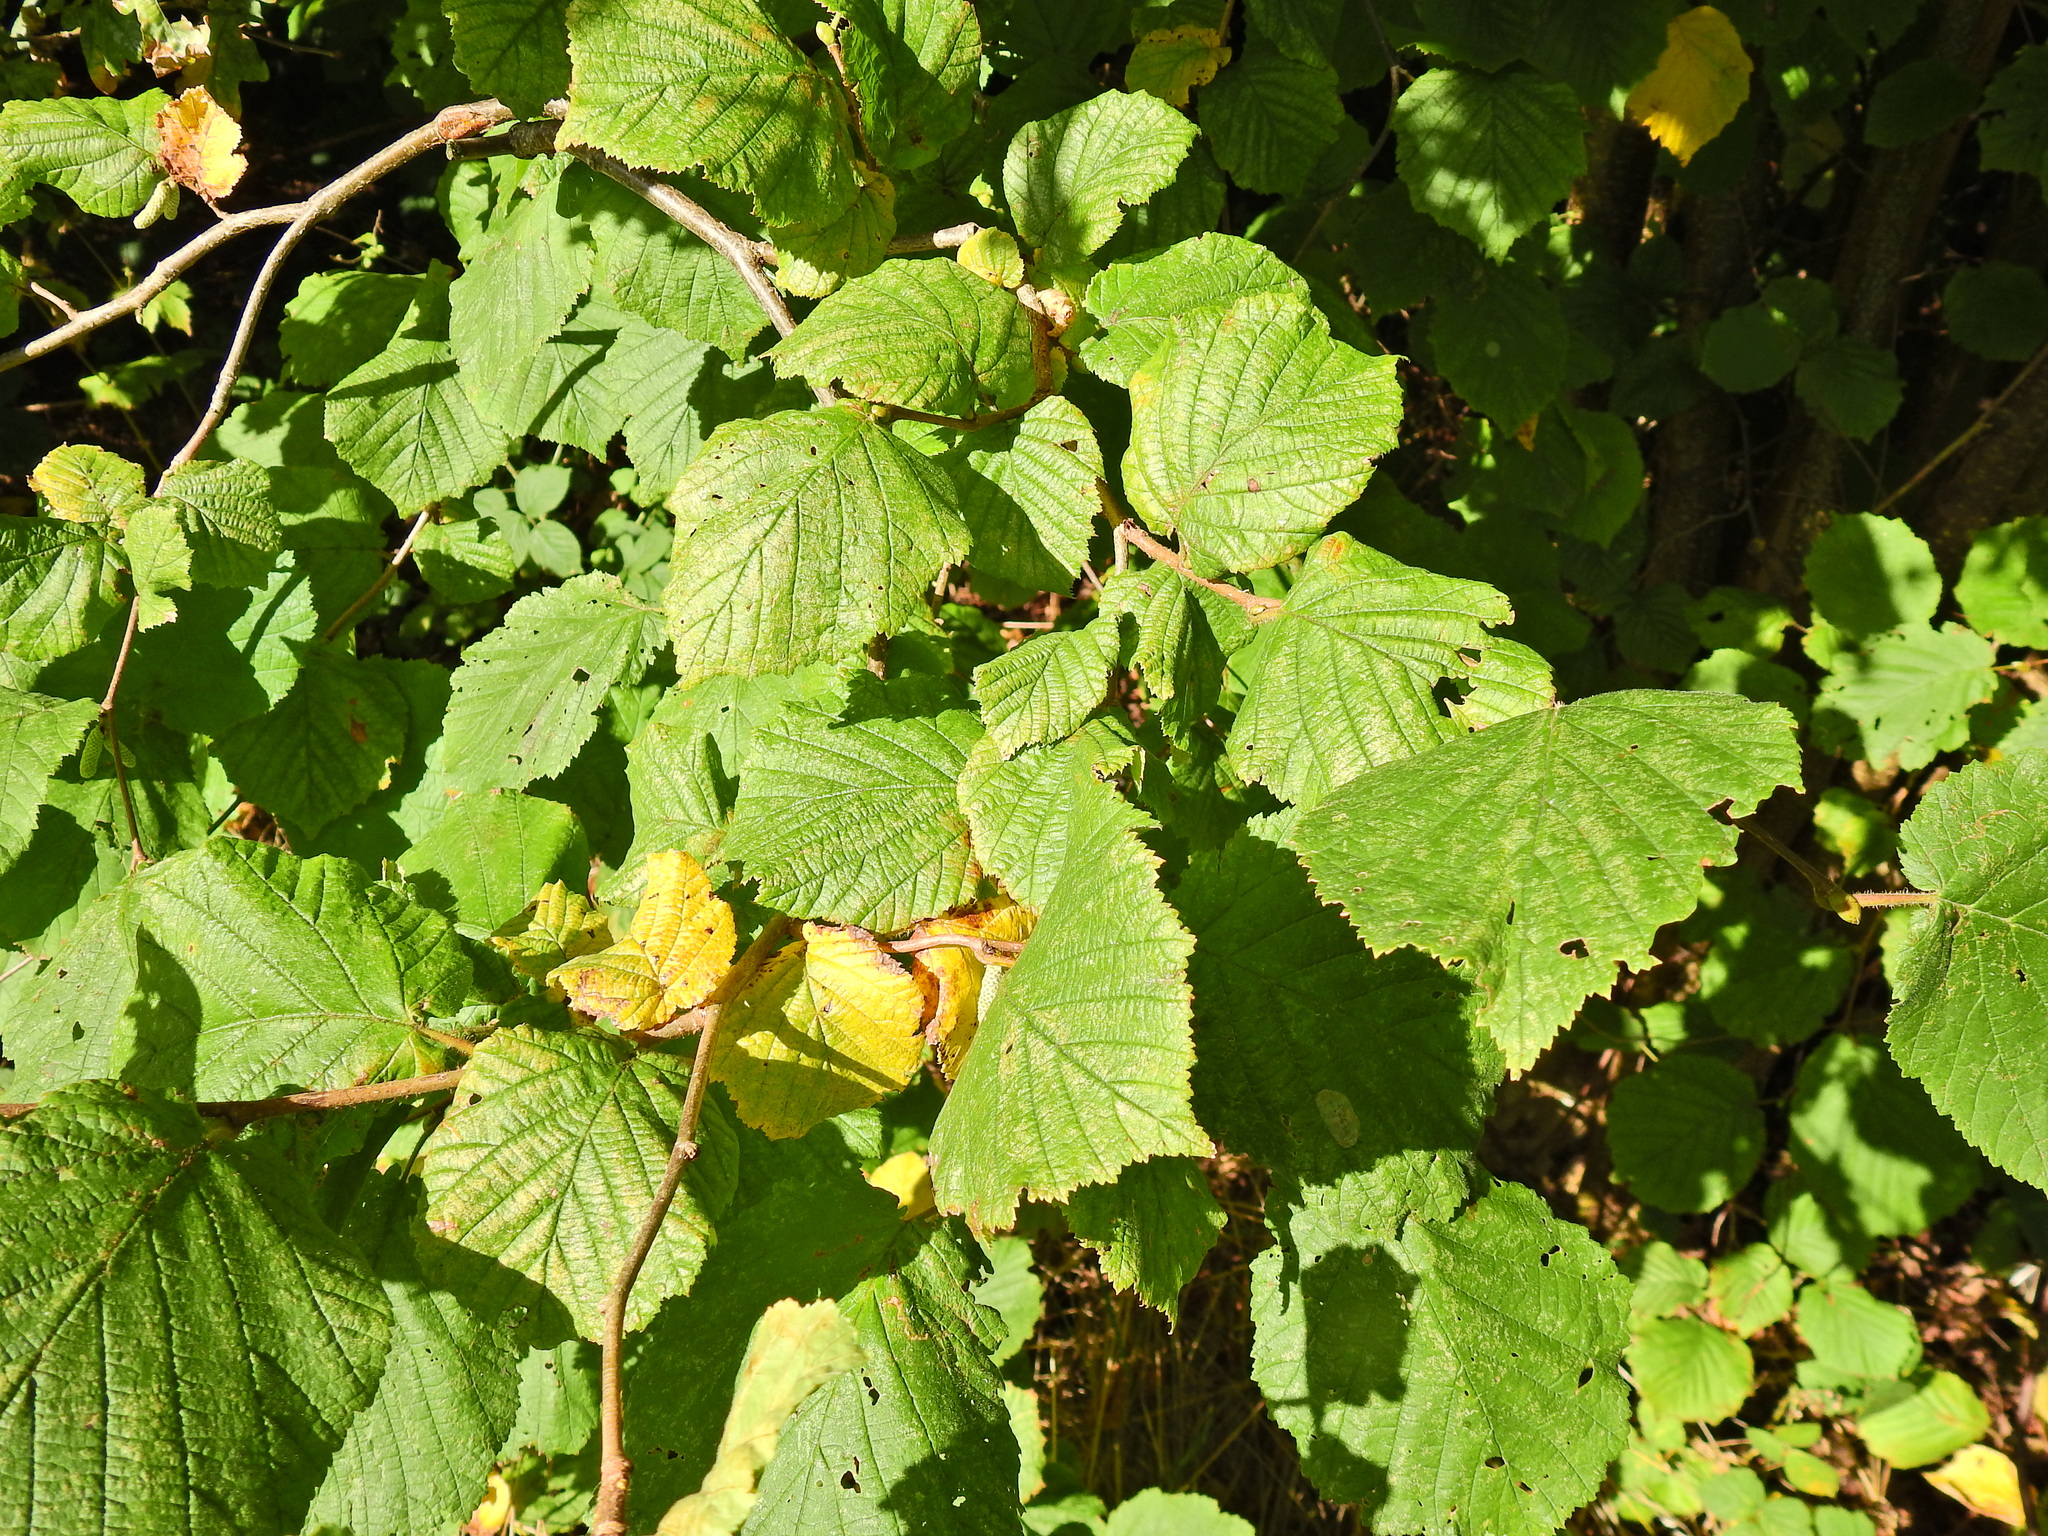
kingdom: Plantae
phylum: Tracheophyta
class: Magnoliopsida
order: Fagales
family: Betulaceae
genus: Corylus
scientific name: Corylus avellana
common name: European hazel
